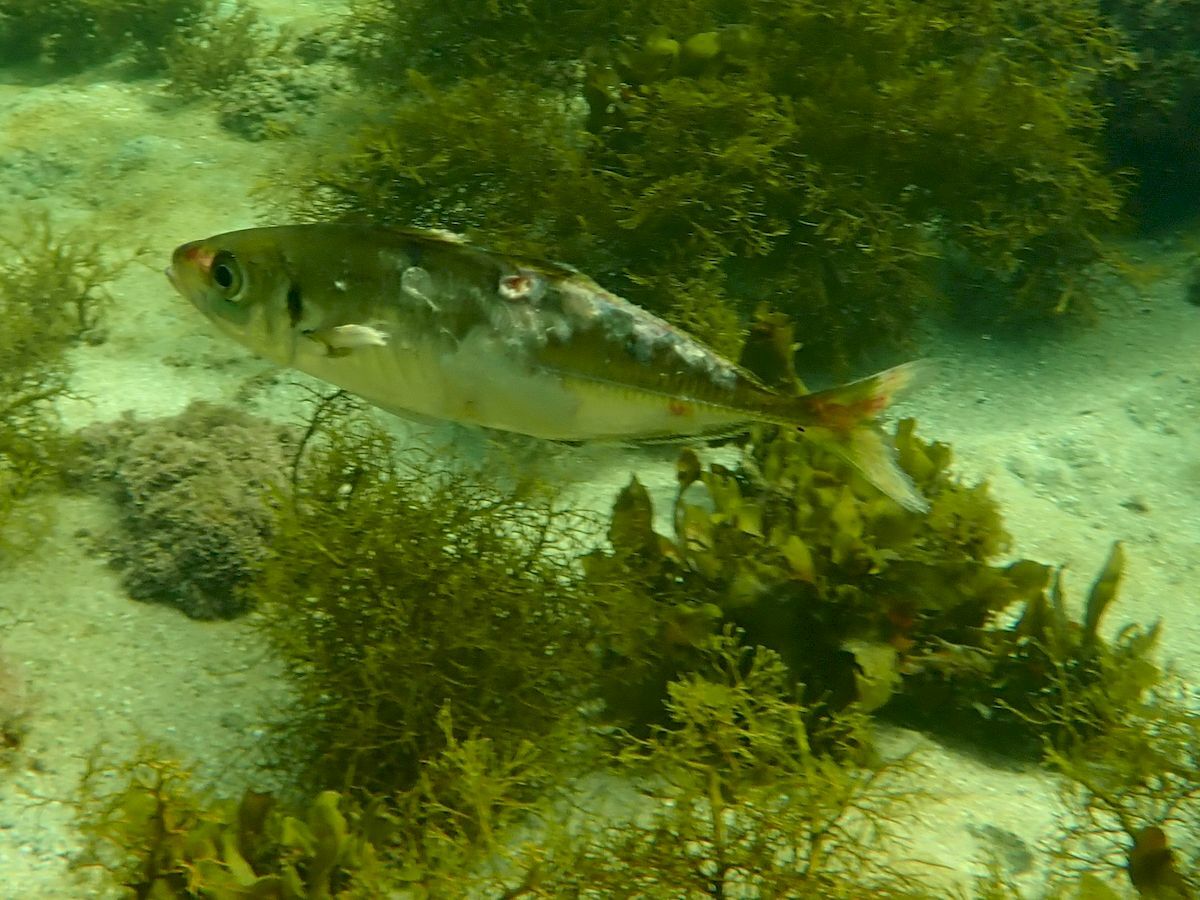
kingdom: Animalia
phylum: Chordata
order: Perciformes
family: Carangidae
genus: Trachurus
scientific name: Trachurus novaezelandiae
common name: Yellowtail horse mackerel
